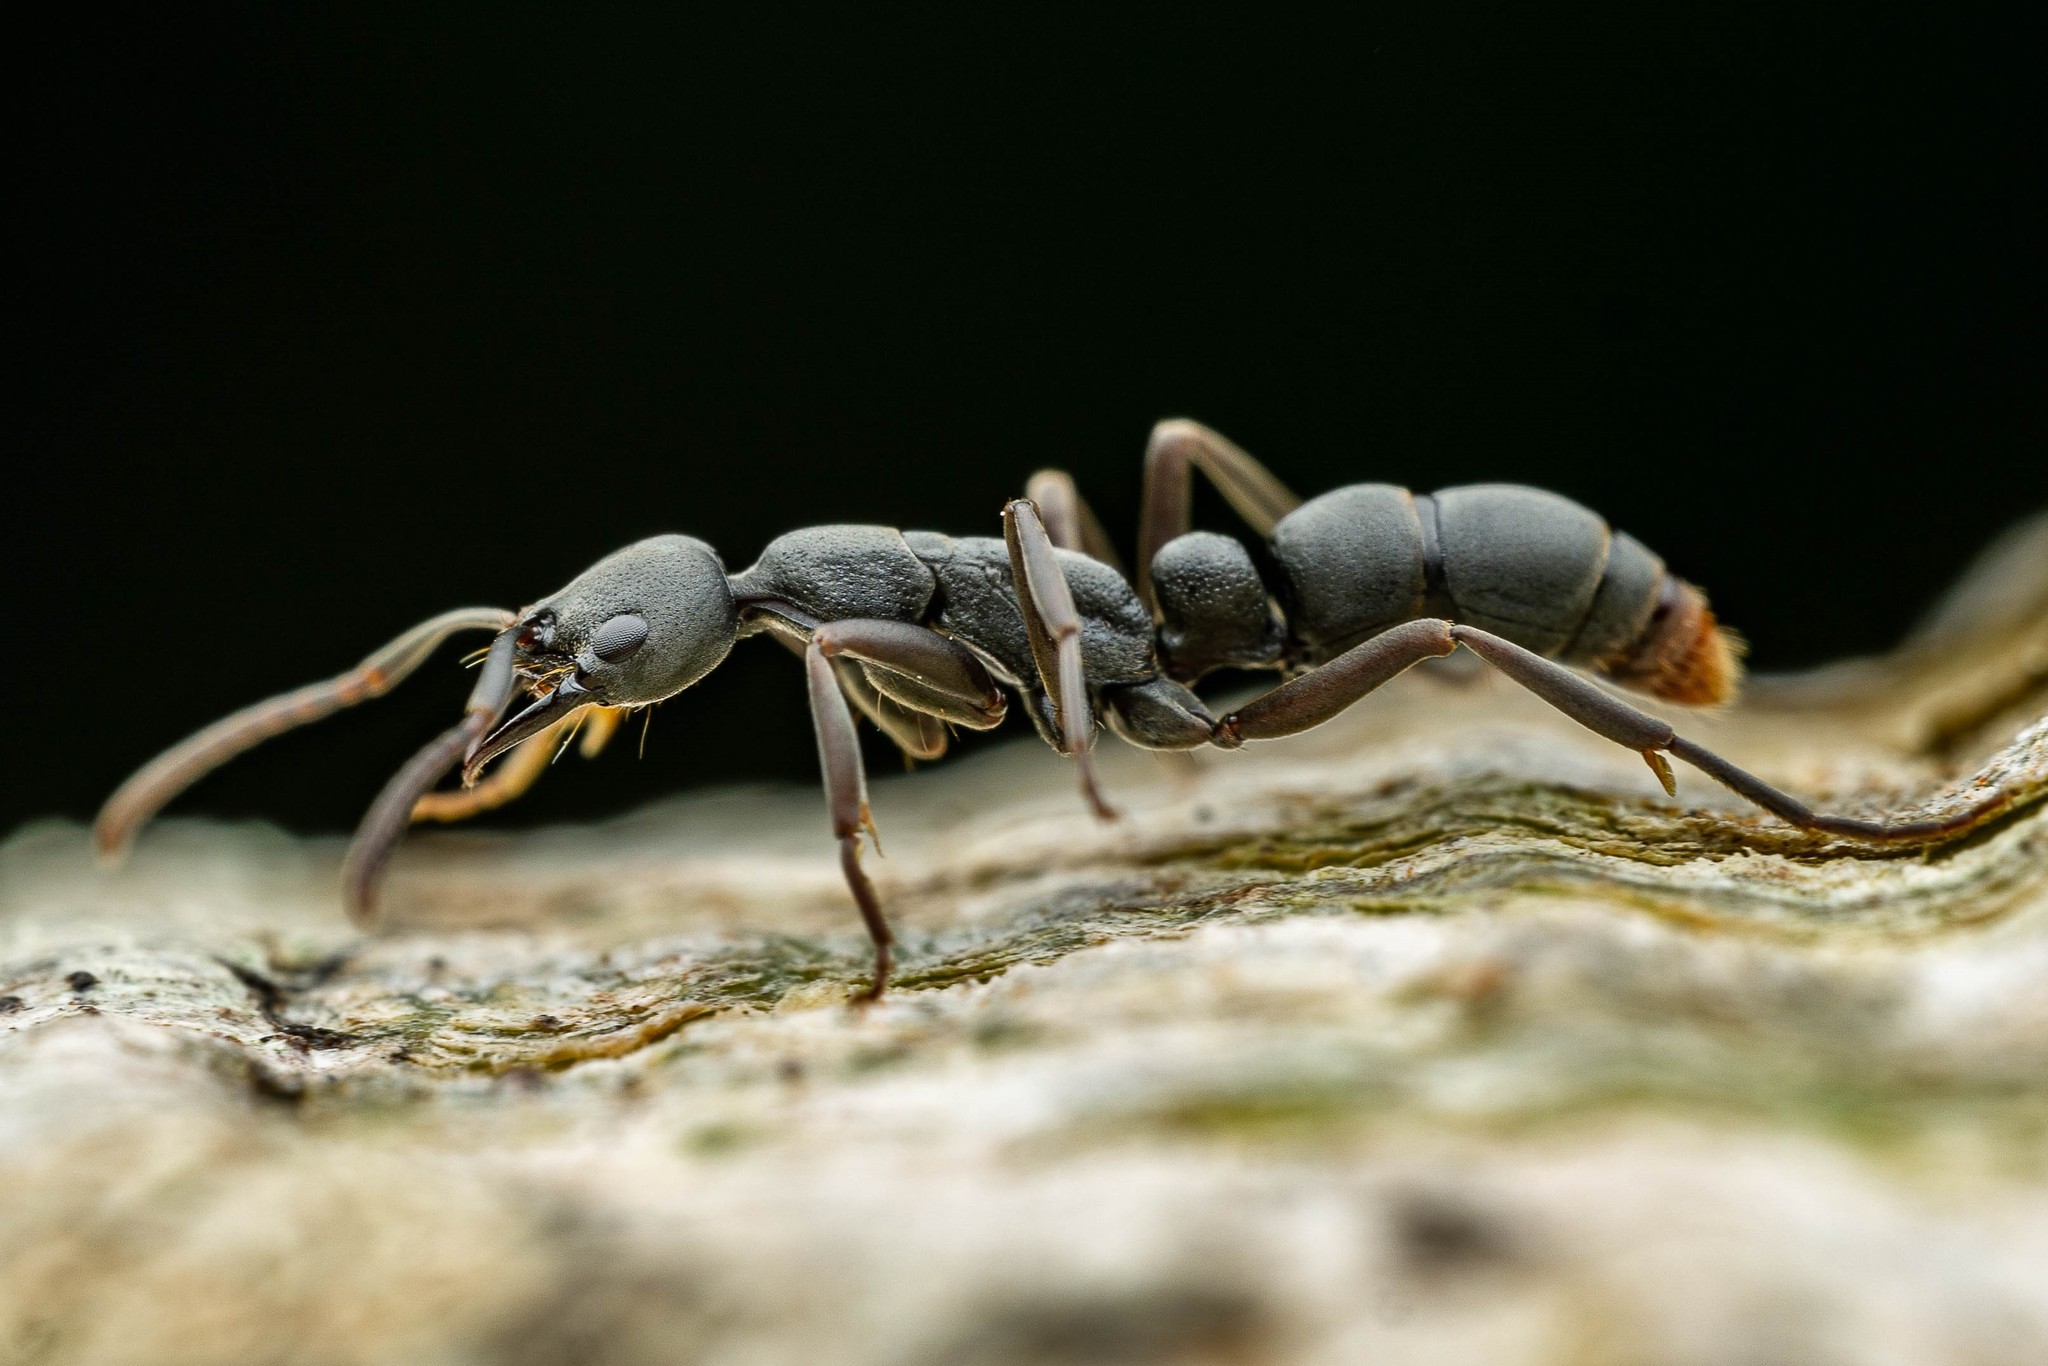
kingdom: Animalia
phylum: Arthropoda
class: Insecta
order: Hymenoptera
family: Formicidae
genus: Leptogenys
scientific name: Leptogenys falcigera
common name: Ant
